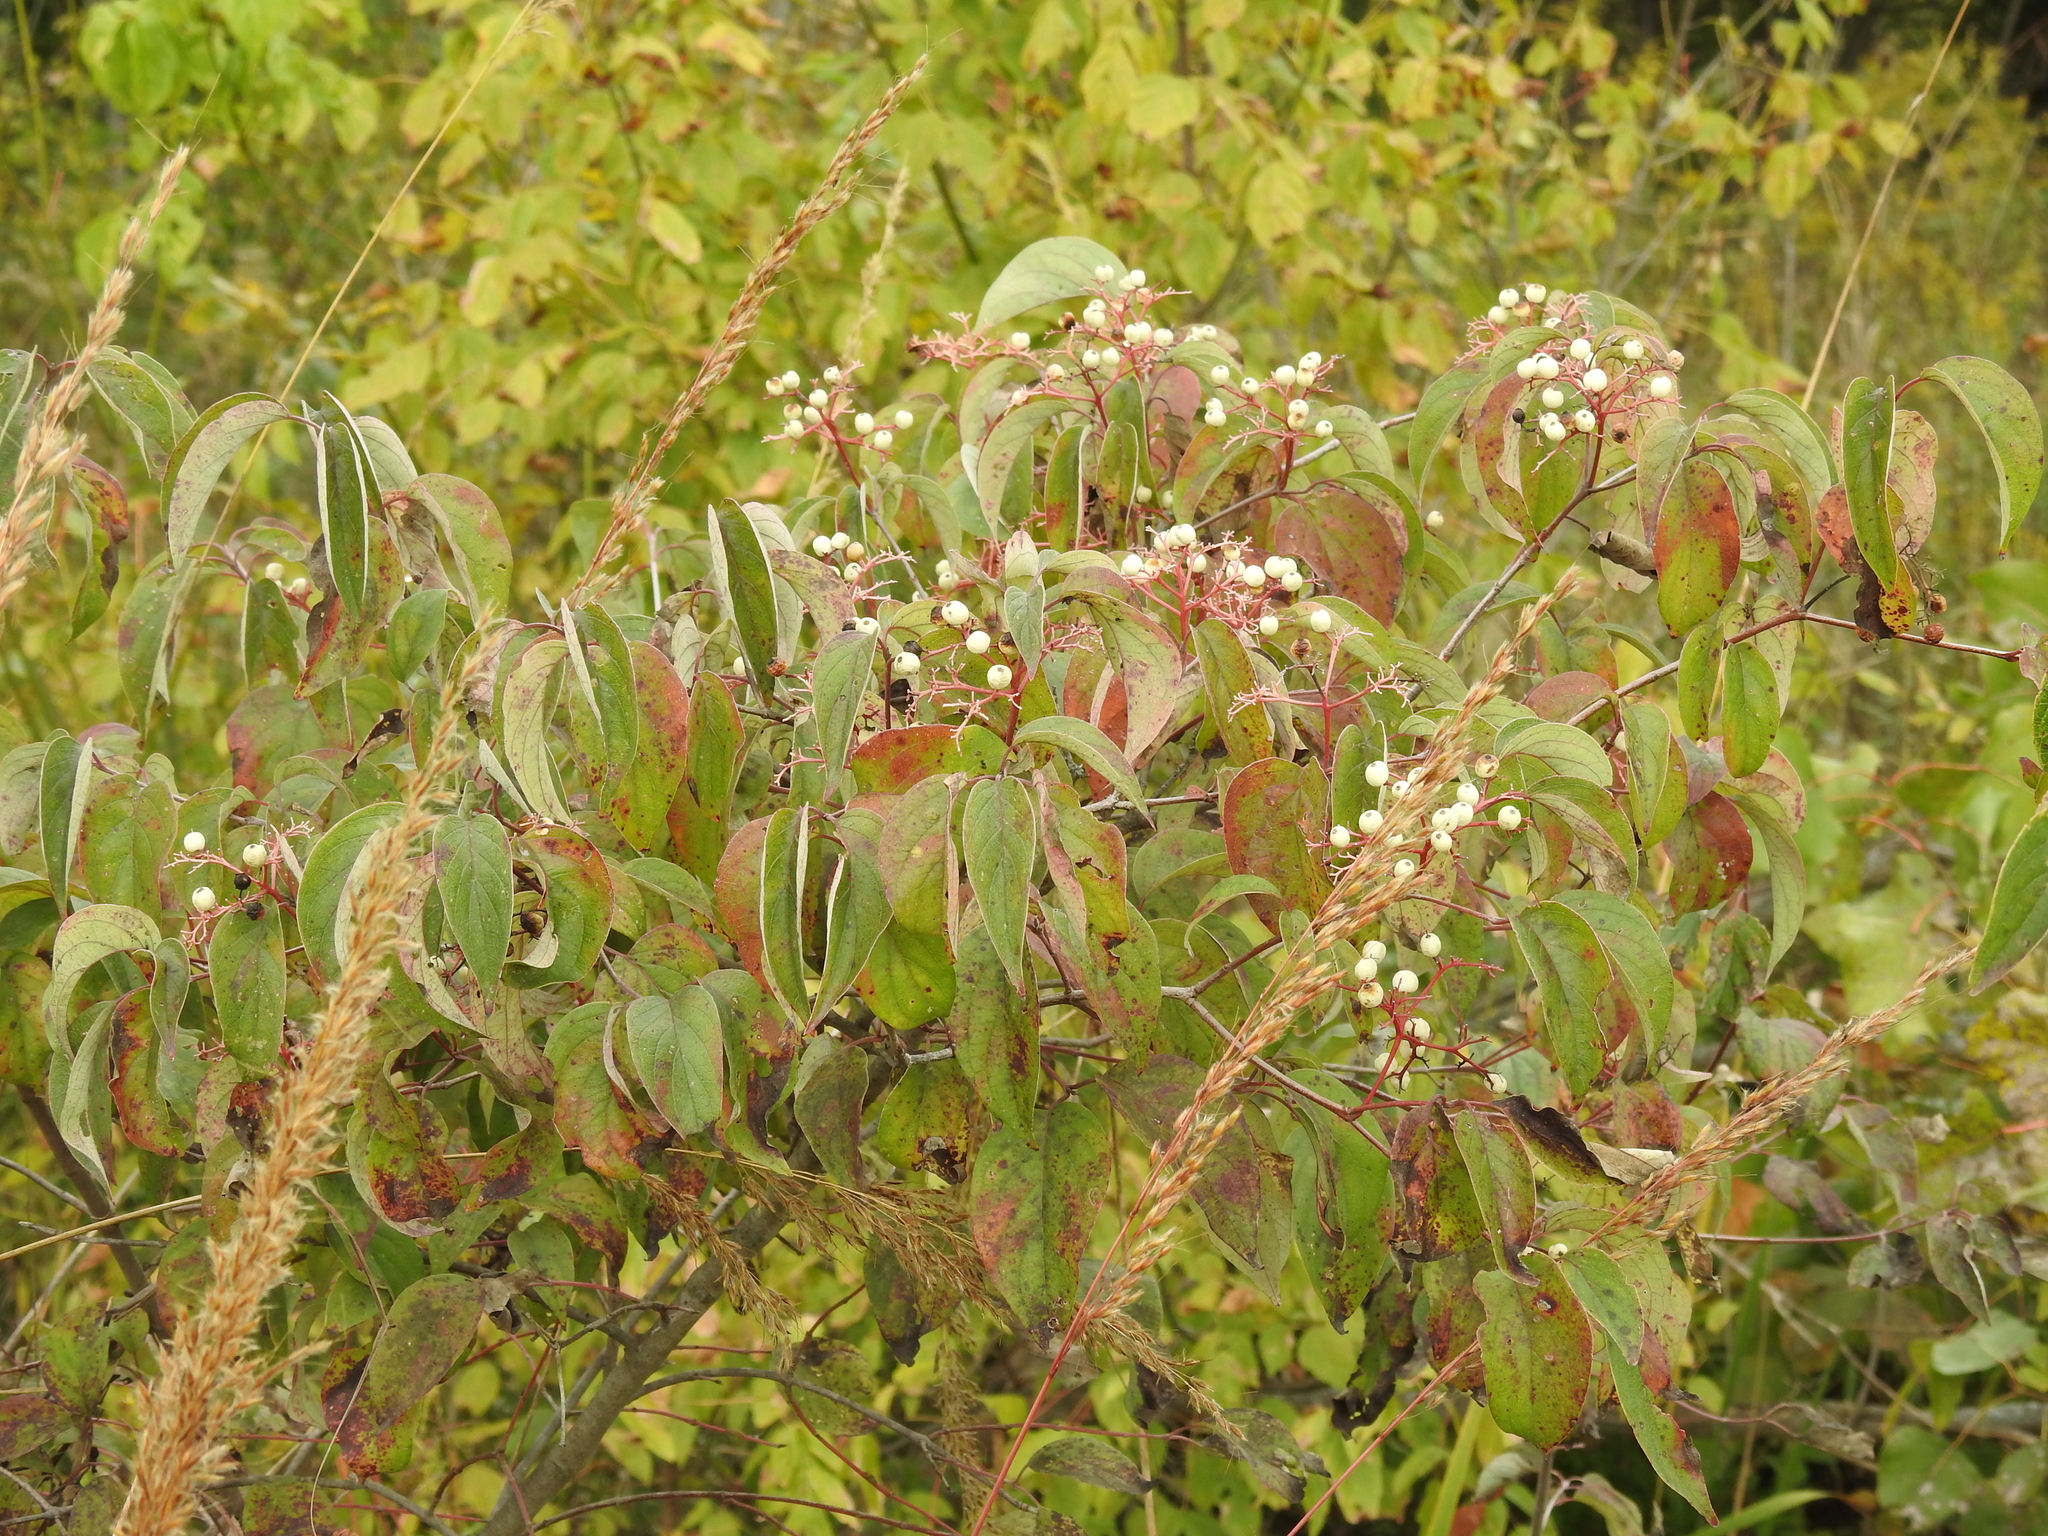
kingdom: Plantae
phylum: Tracheophyta
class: Magnoliopsida
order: Cornales
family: Cornaceae
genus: Cornus
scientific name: Cornus drummondii
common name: Rough-leaf dogwood
